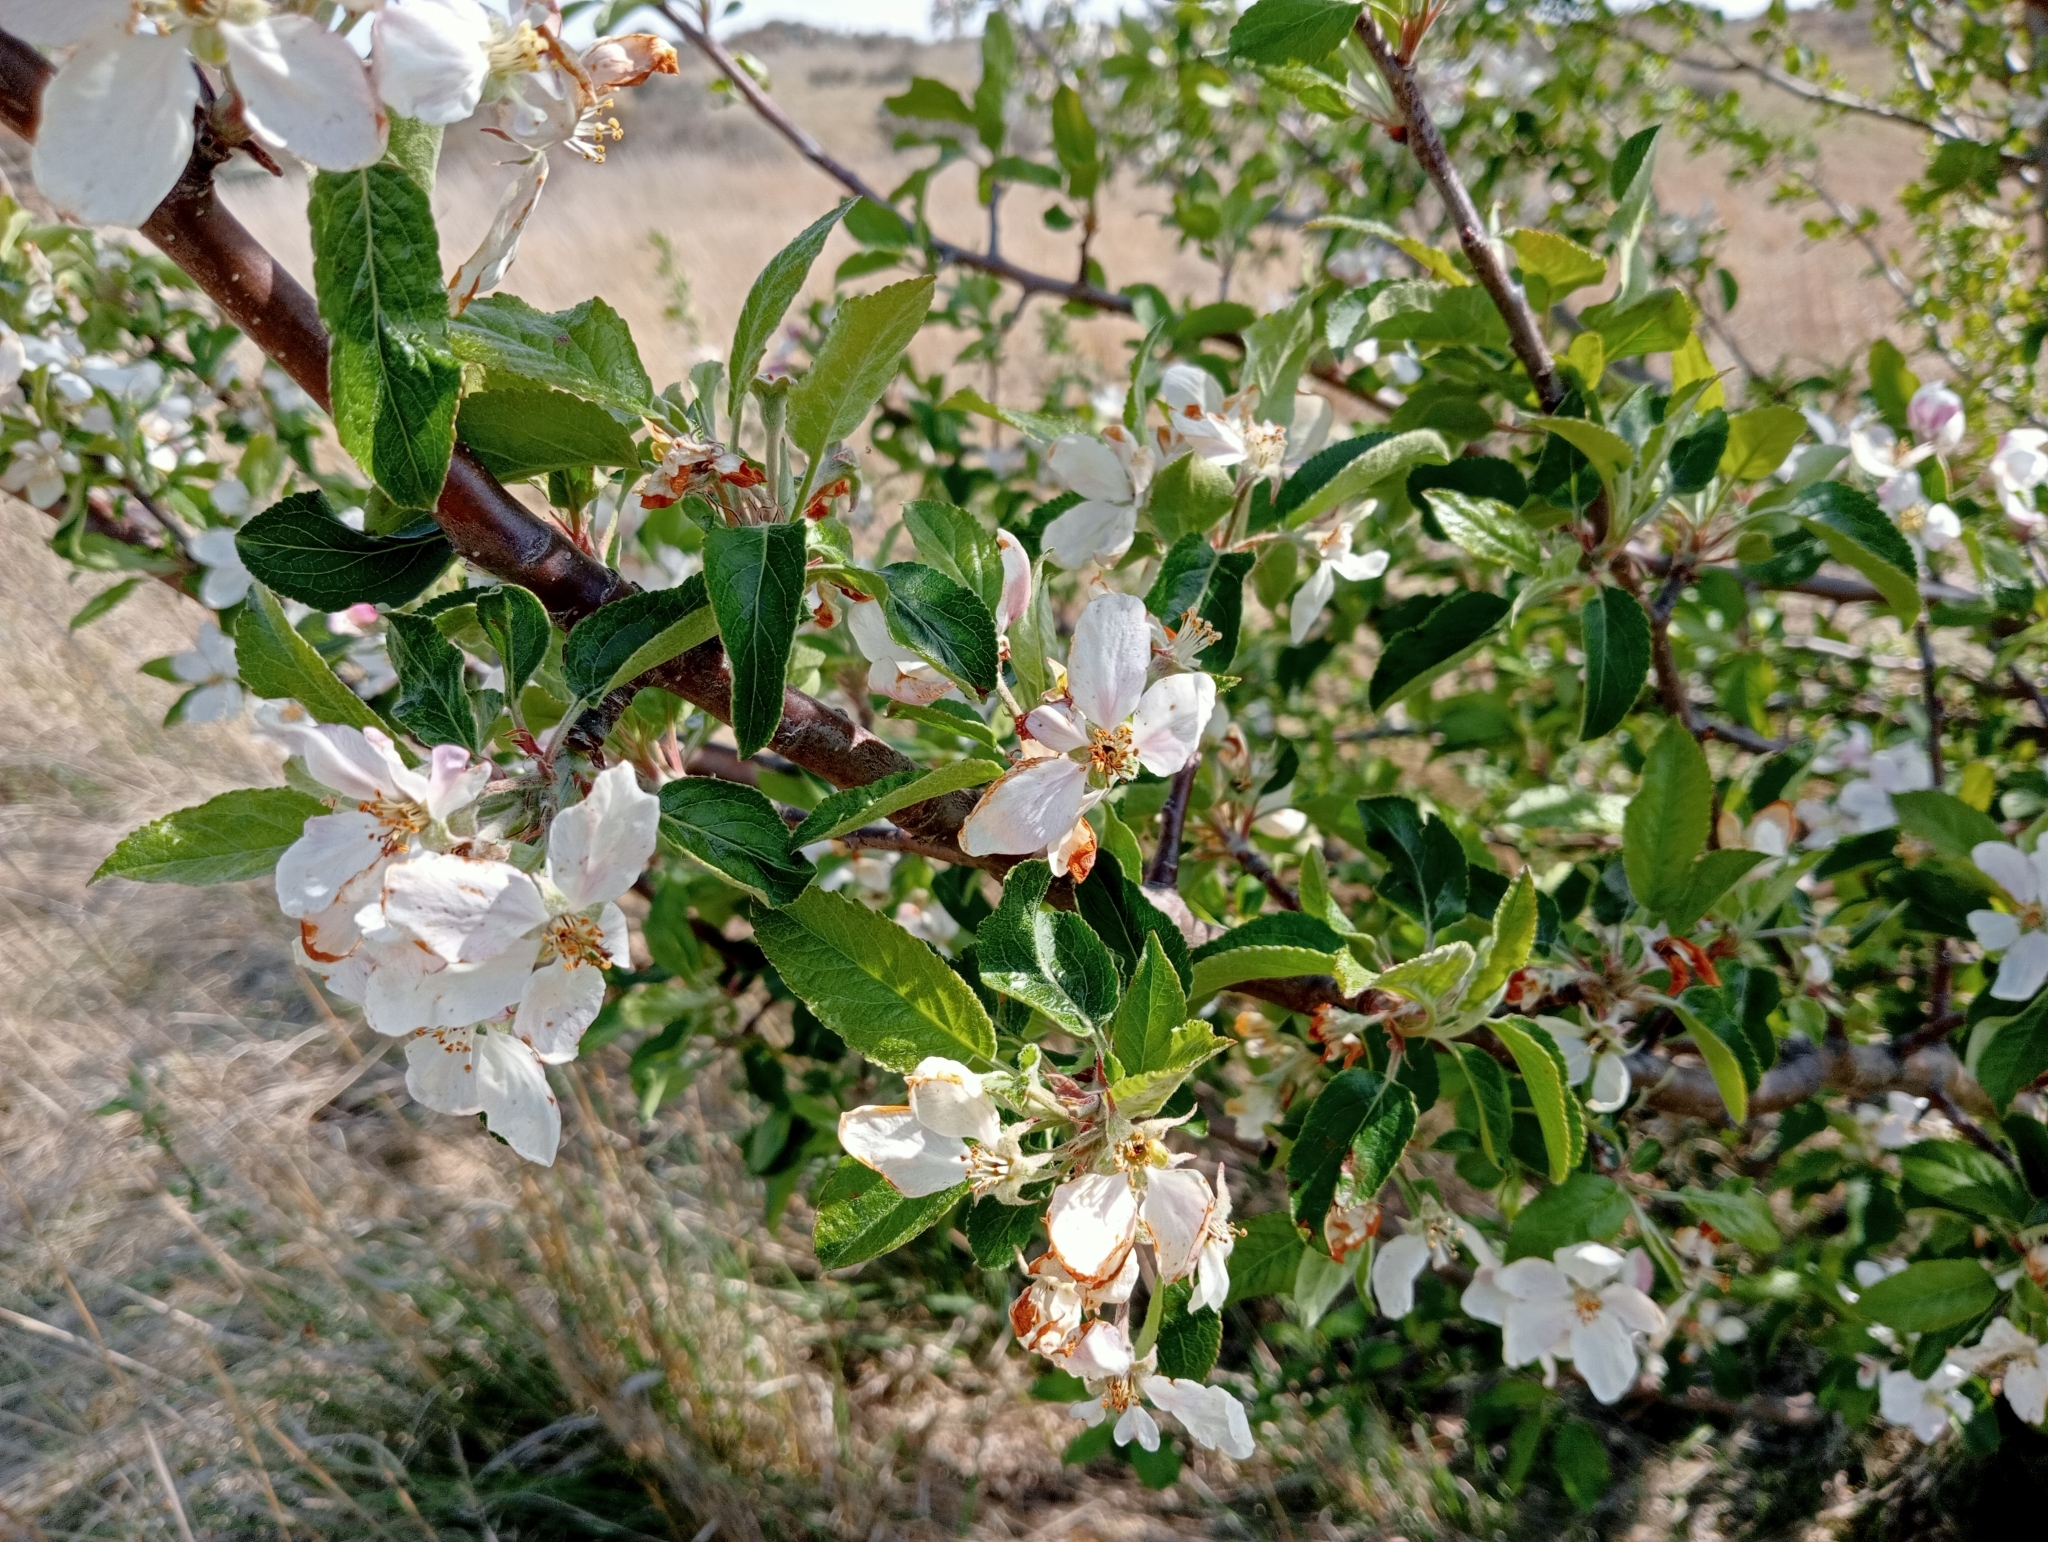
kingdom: Plantae
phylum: Tracheophyta
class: Magnoliopsida
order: Rosales
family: Rosaceae
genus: Malus
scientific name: Malus domestica
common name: Apple
